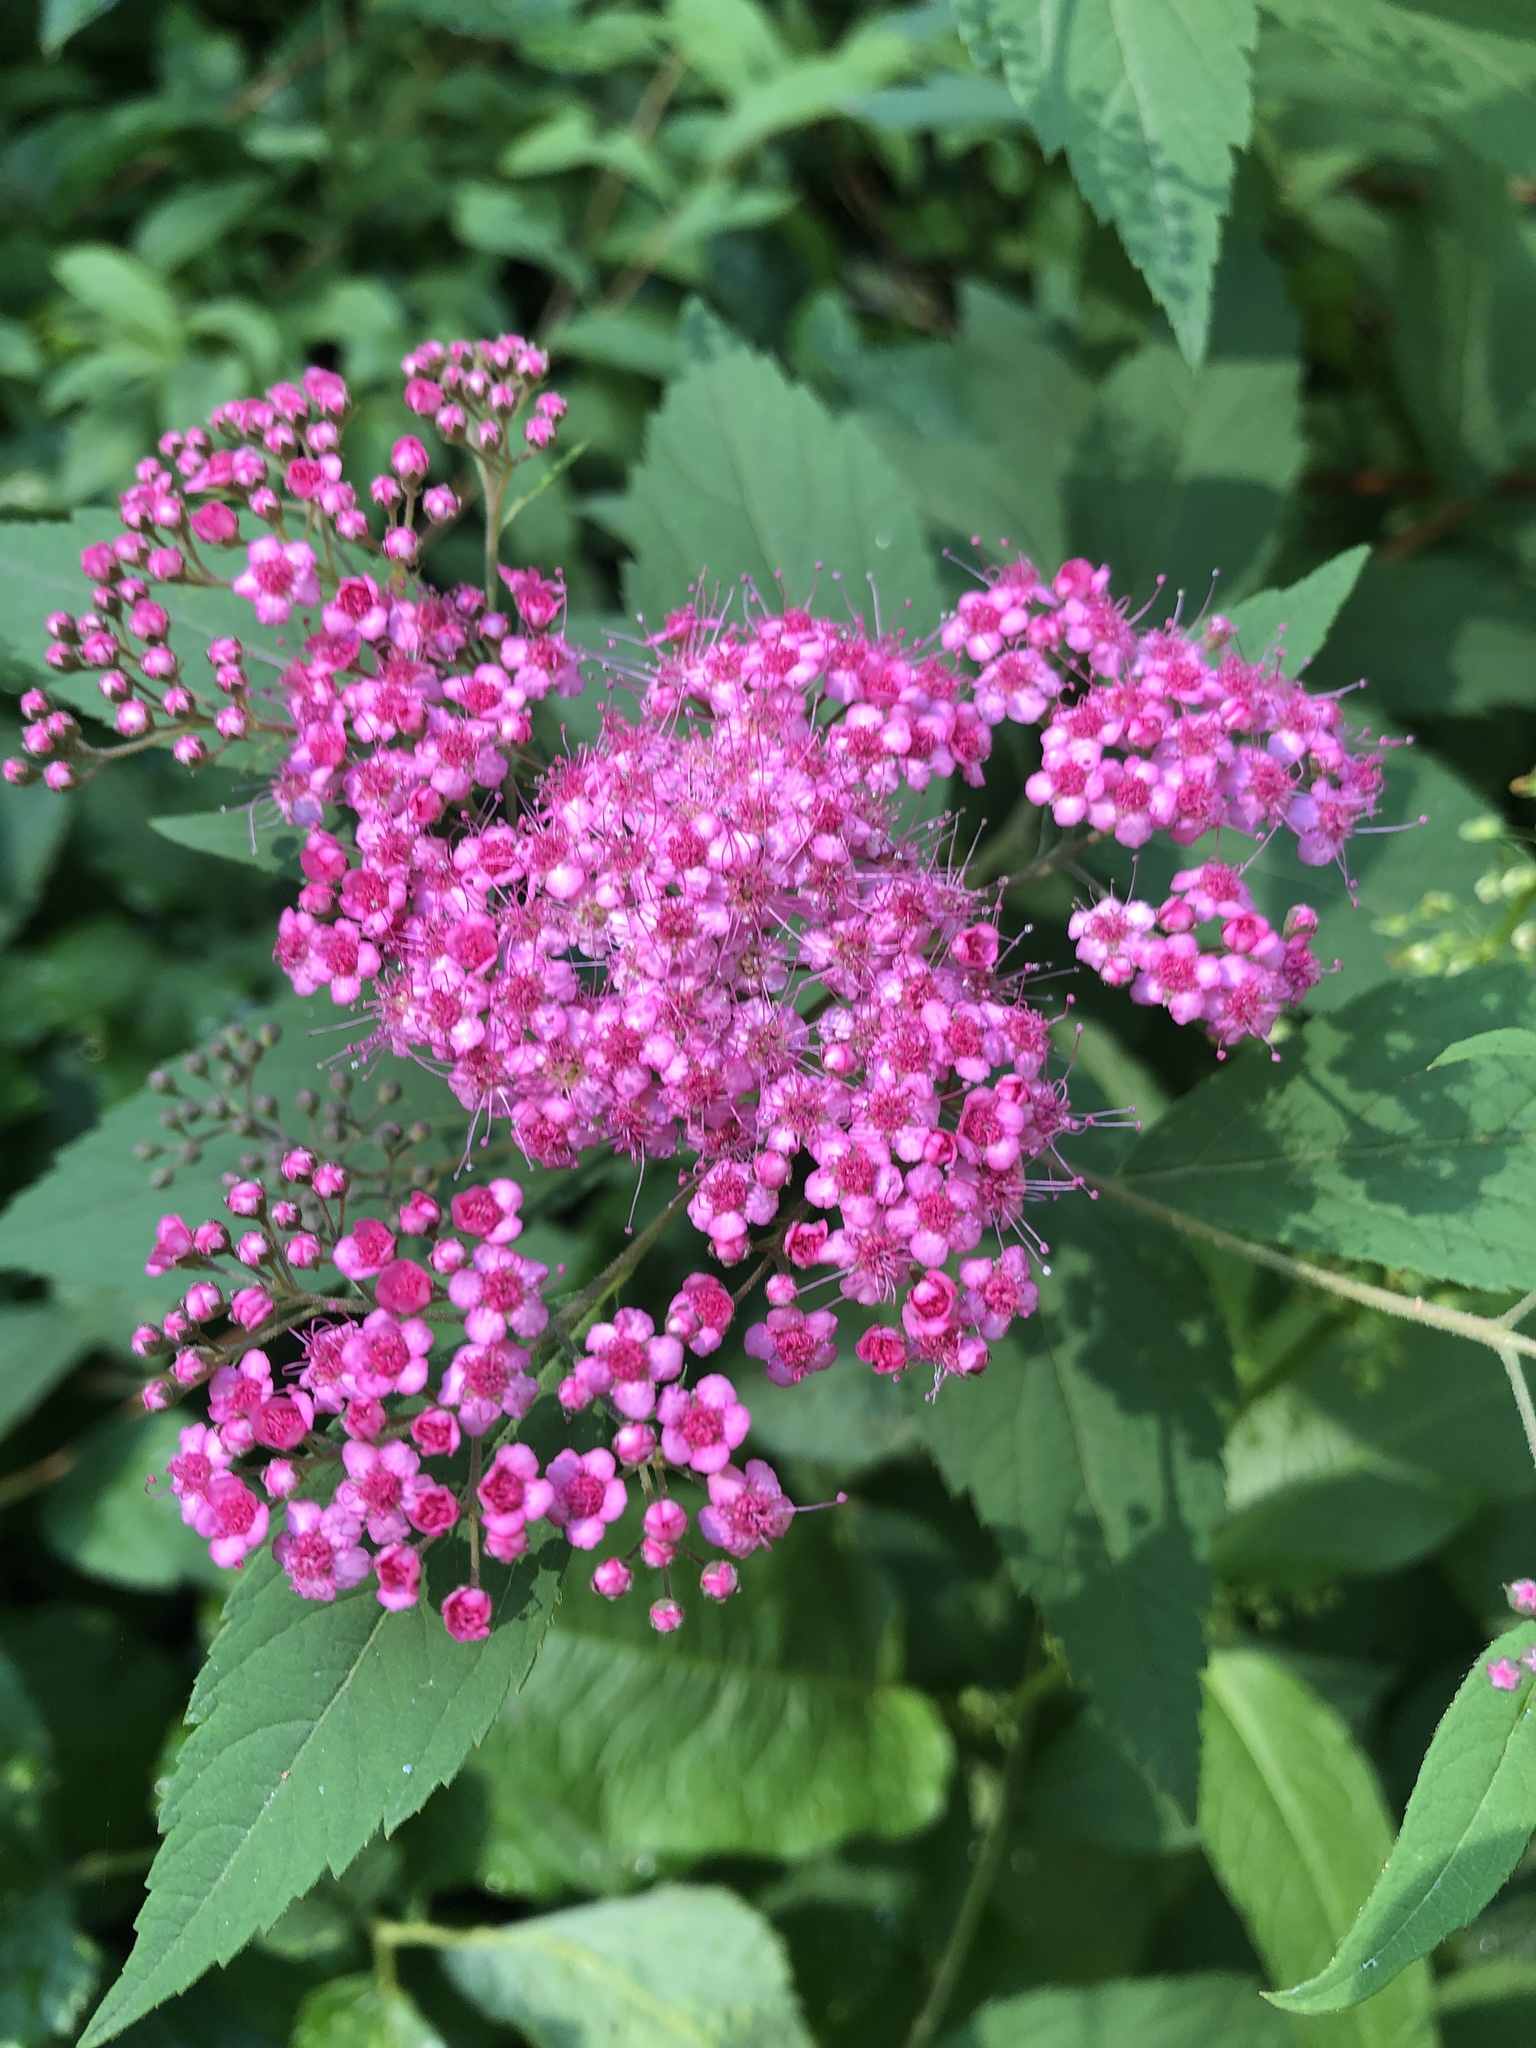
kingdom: Plantae
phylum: Tracheophyta
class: Magnoliopsida
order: Rosales
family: Rosaceae
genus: Spiraea
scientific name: Spiraea japonica
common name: Japanese spiraea
